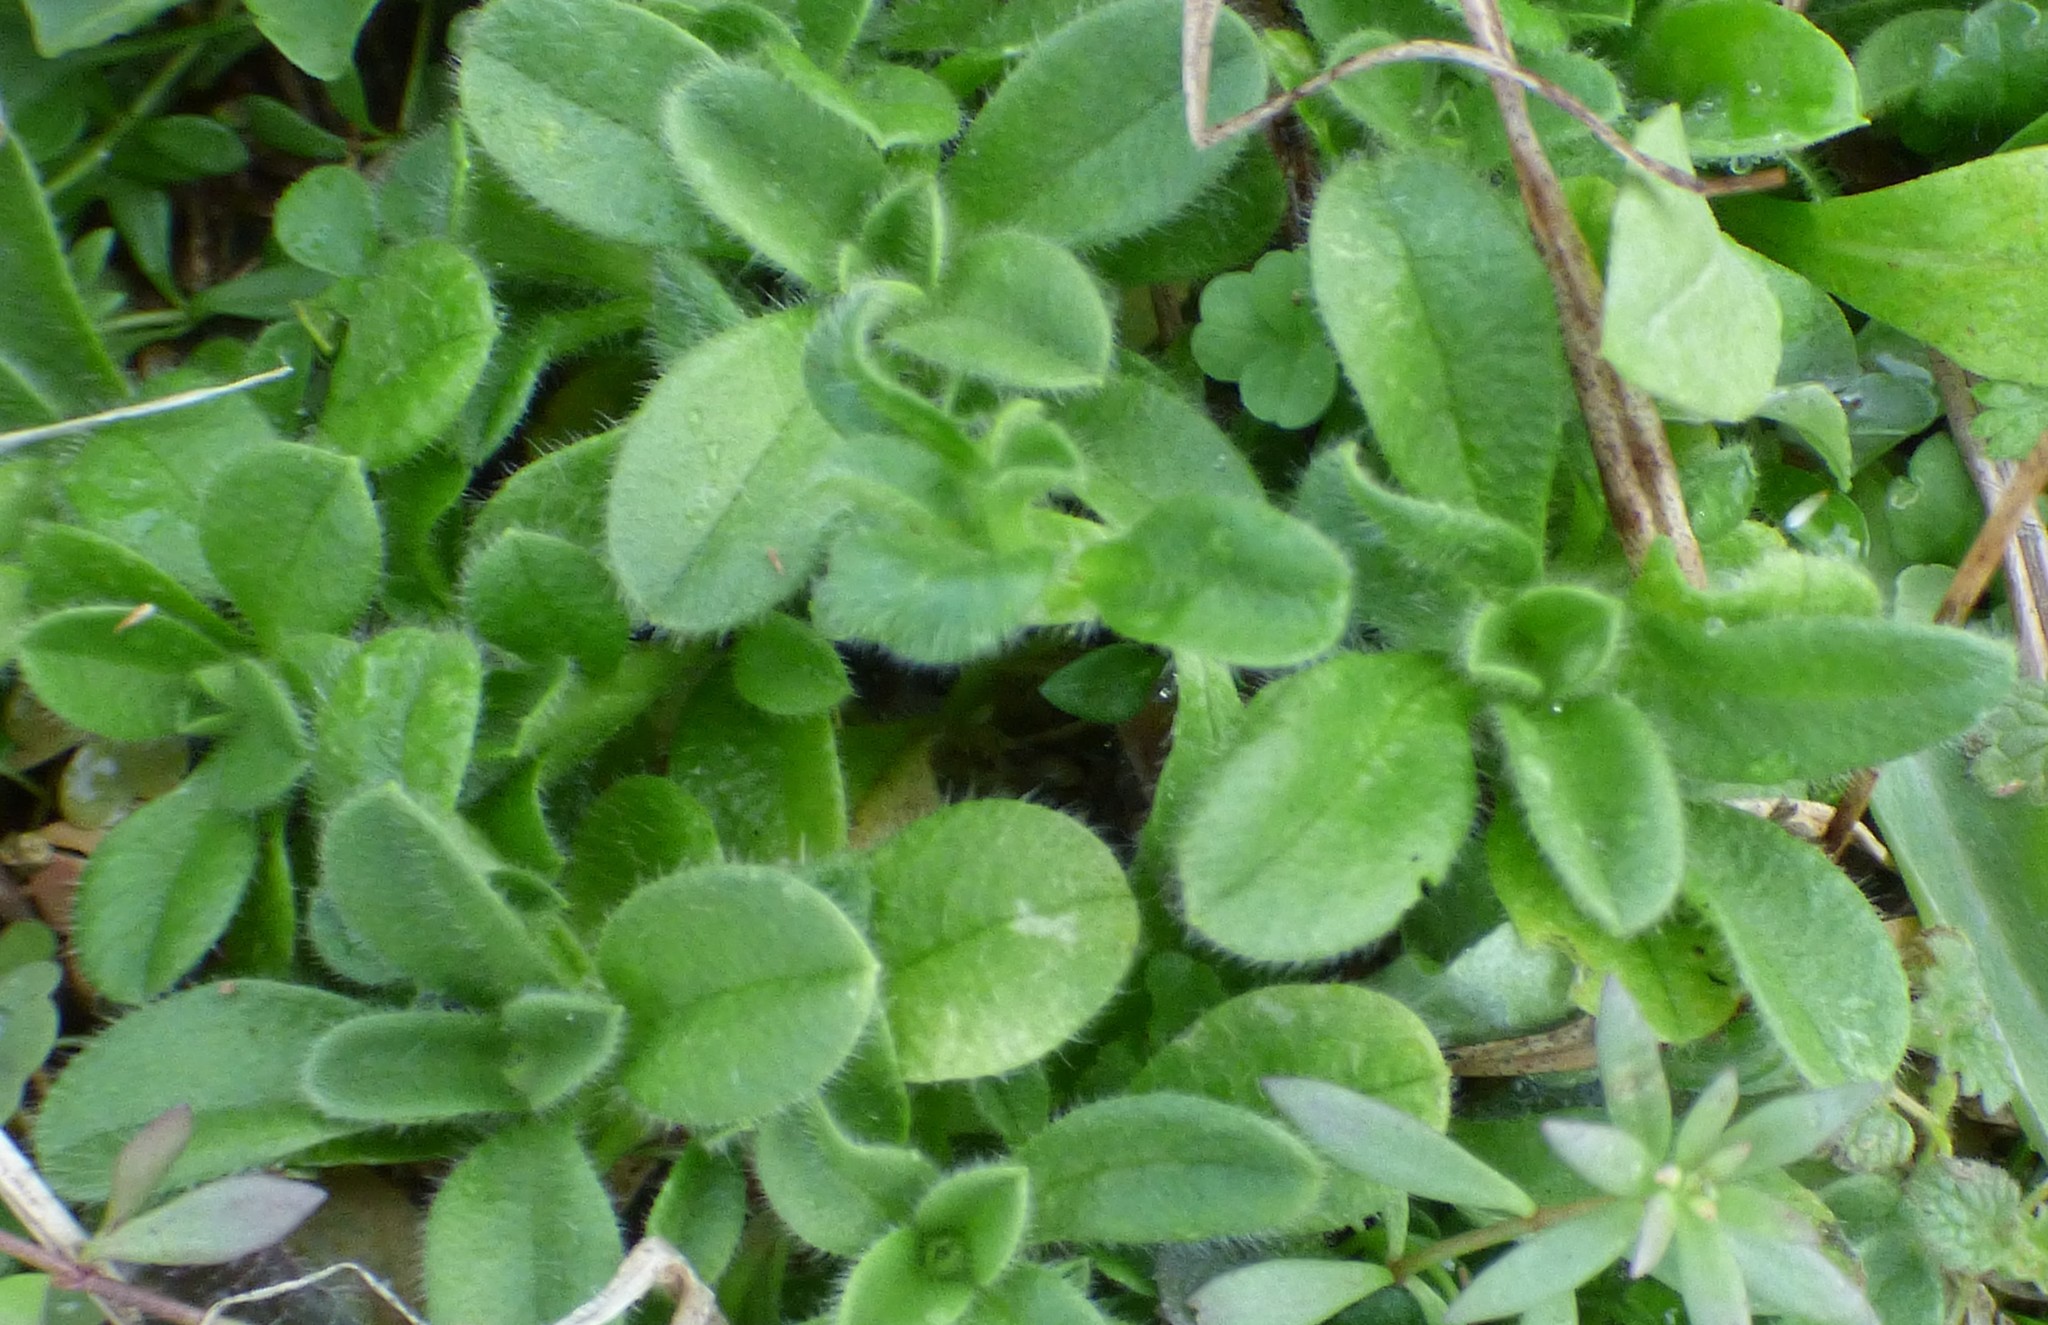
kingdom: Plantae
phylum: Tracheophyta
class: Magnoliopsida
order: Caryophyllales
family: Caryophyllaceae
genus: Cerastium
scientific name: Cerastium fontanum
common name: Common mouse-ear
